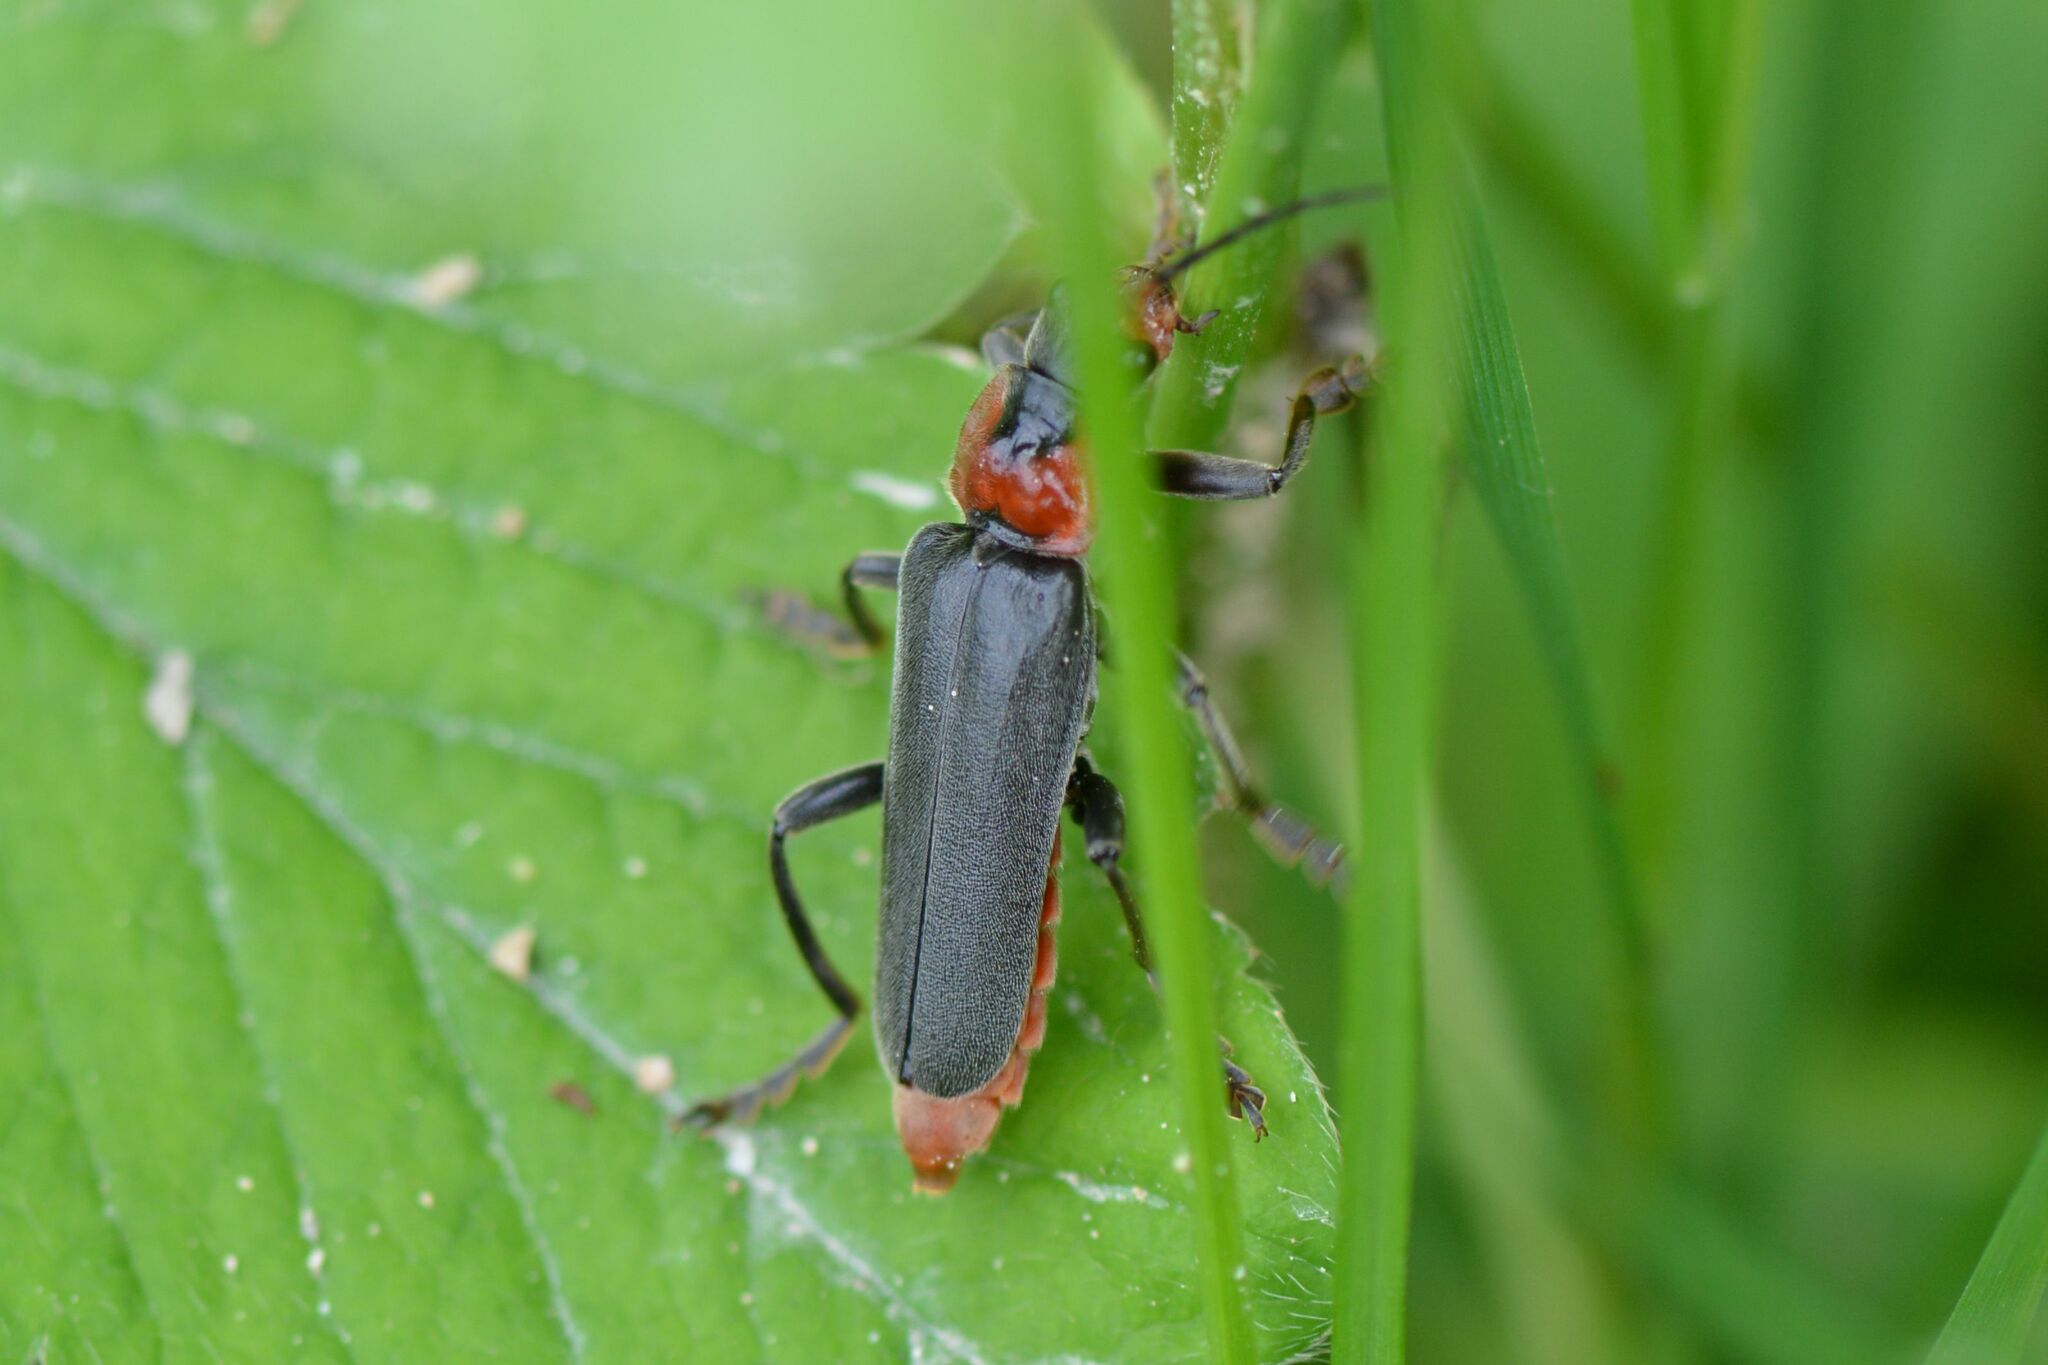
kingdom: Animalia
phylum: Arthropoda
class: Insecta
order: Coleoptera
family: Cantharidae
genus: Cantharis
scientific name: Cantharis fusca
